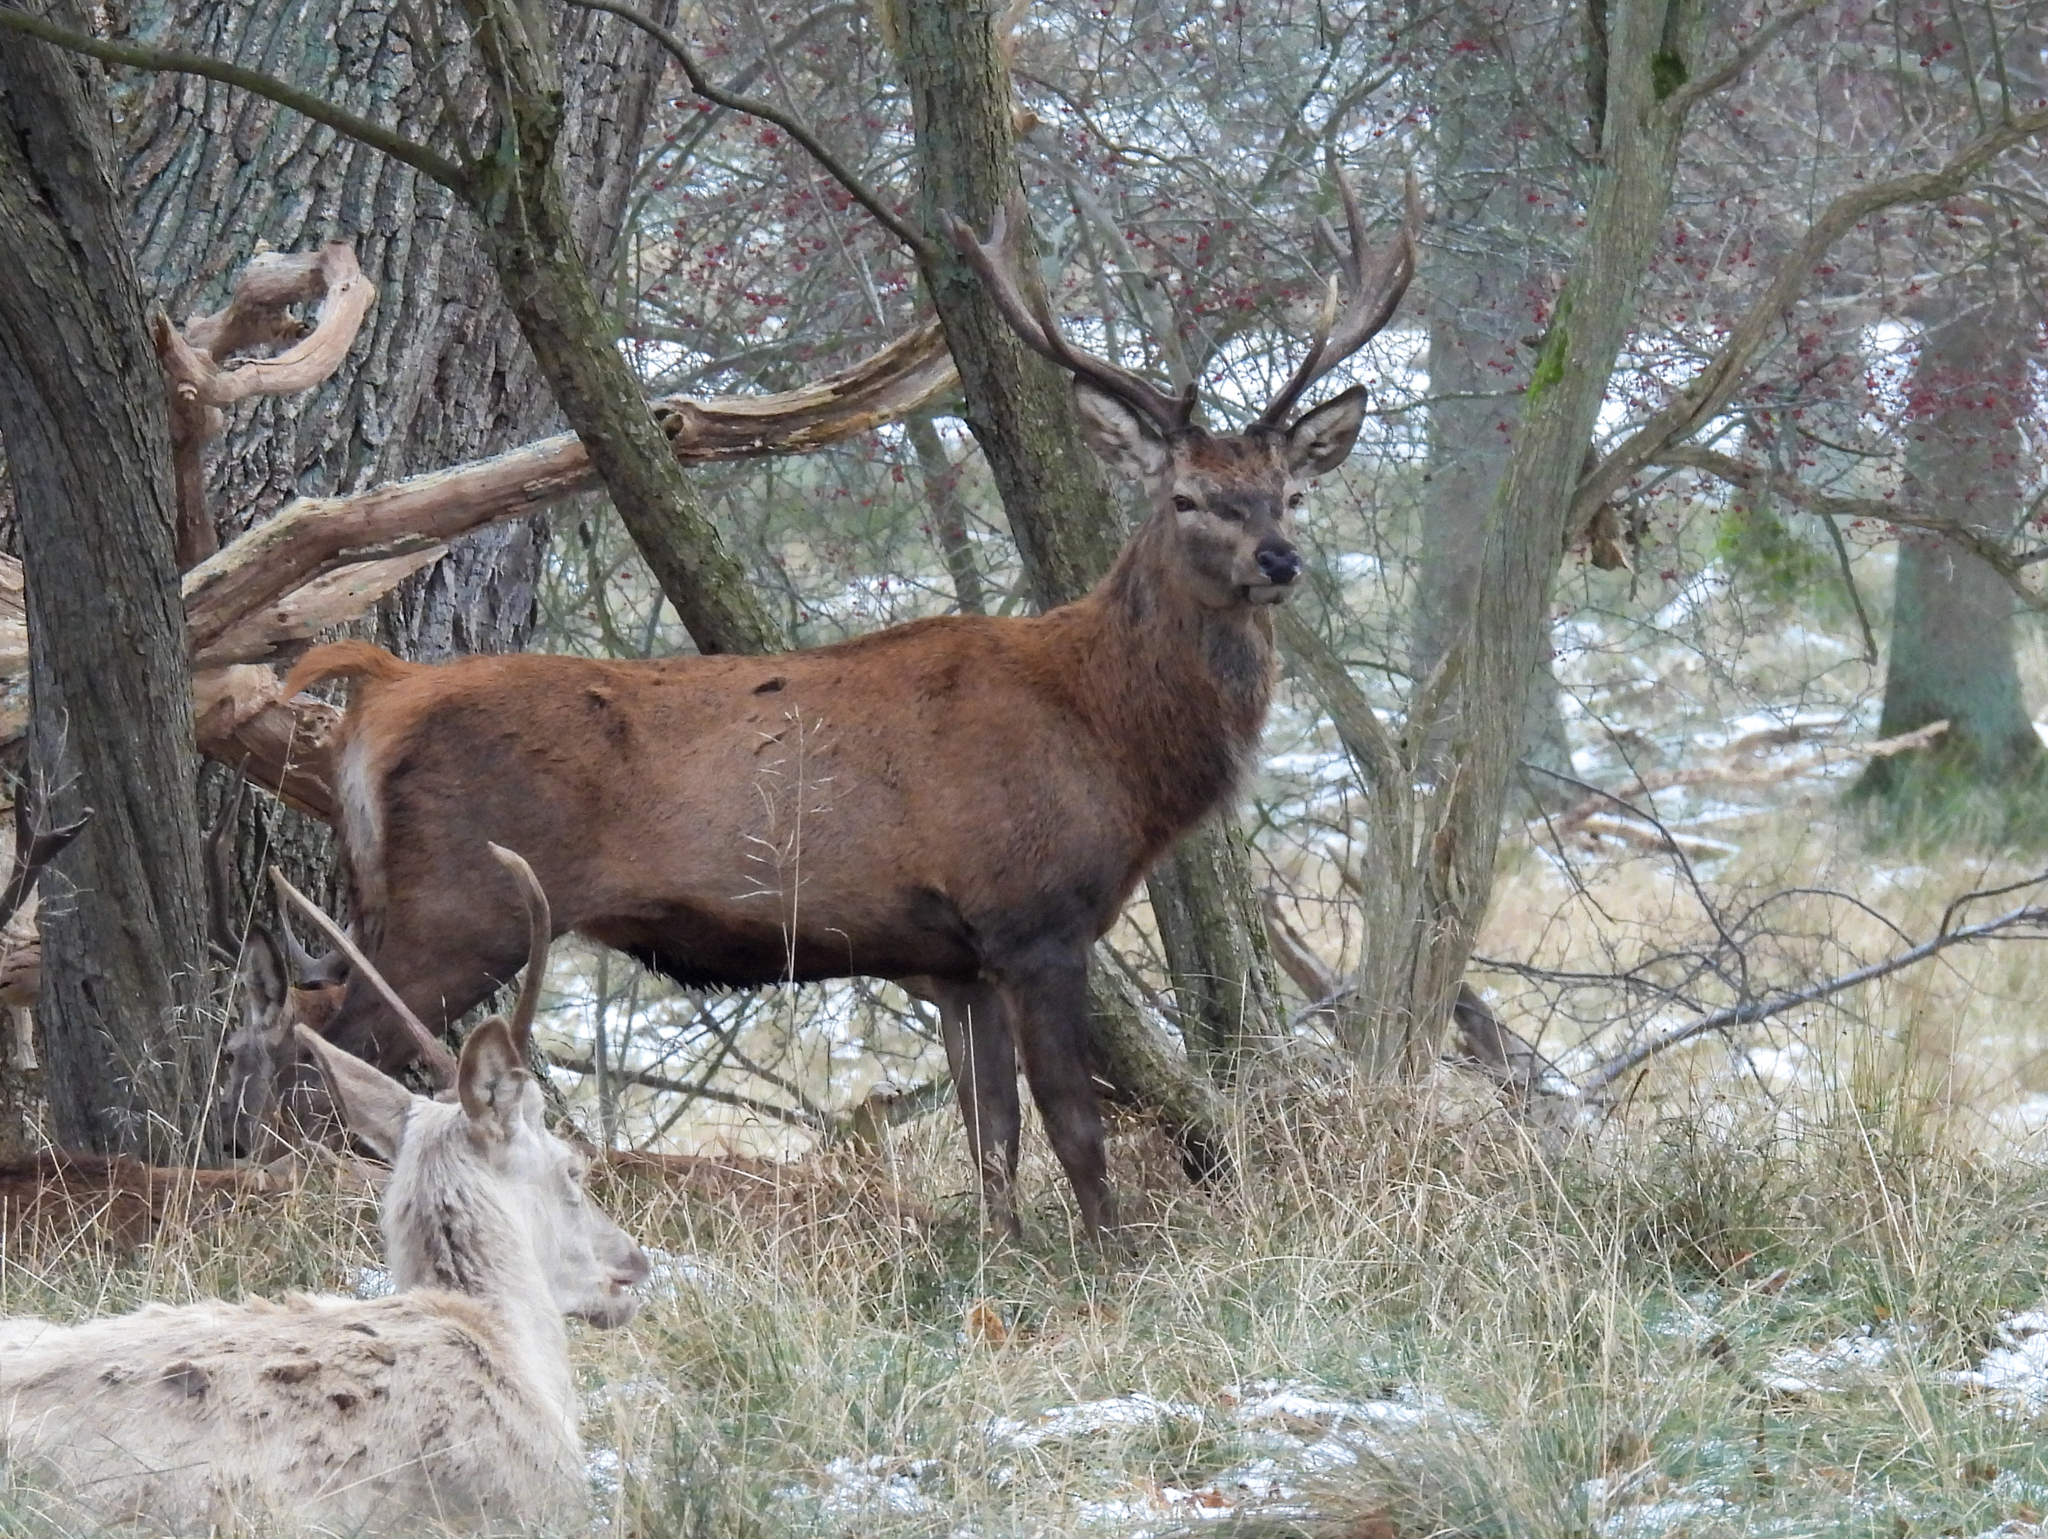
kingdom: Animalia
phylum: Chordata
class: Mammalia
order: Artiodactyla
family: Cervidae
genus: Cervus
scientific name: Cervus elaphus
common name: Red deer
